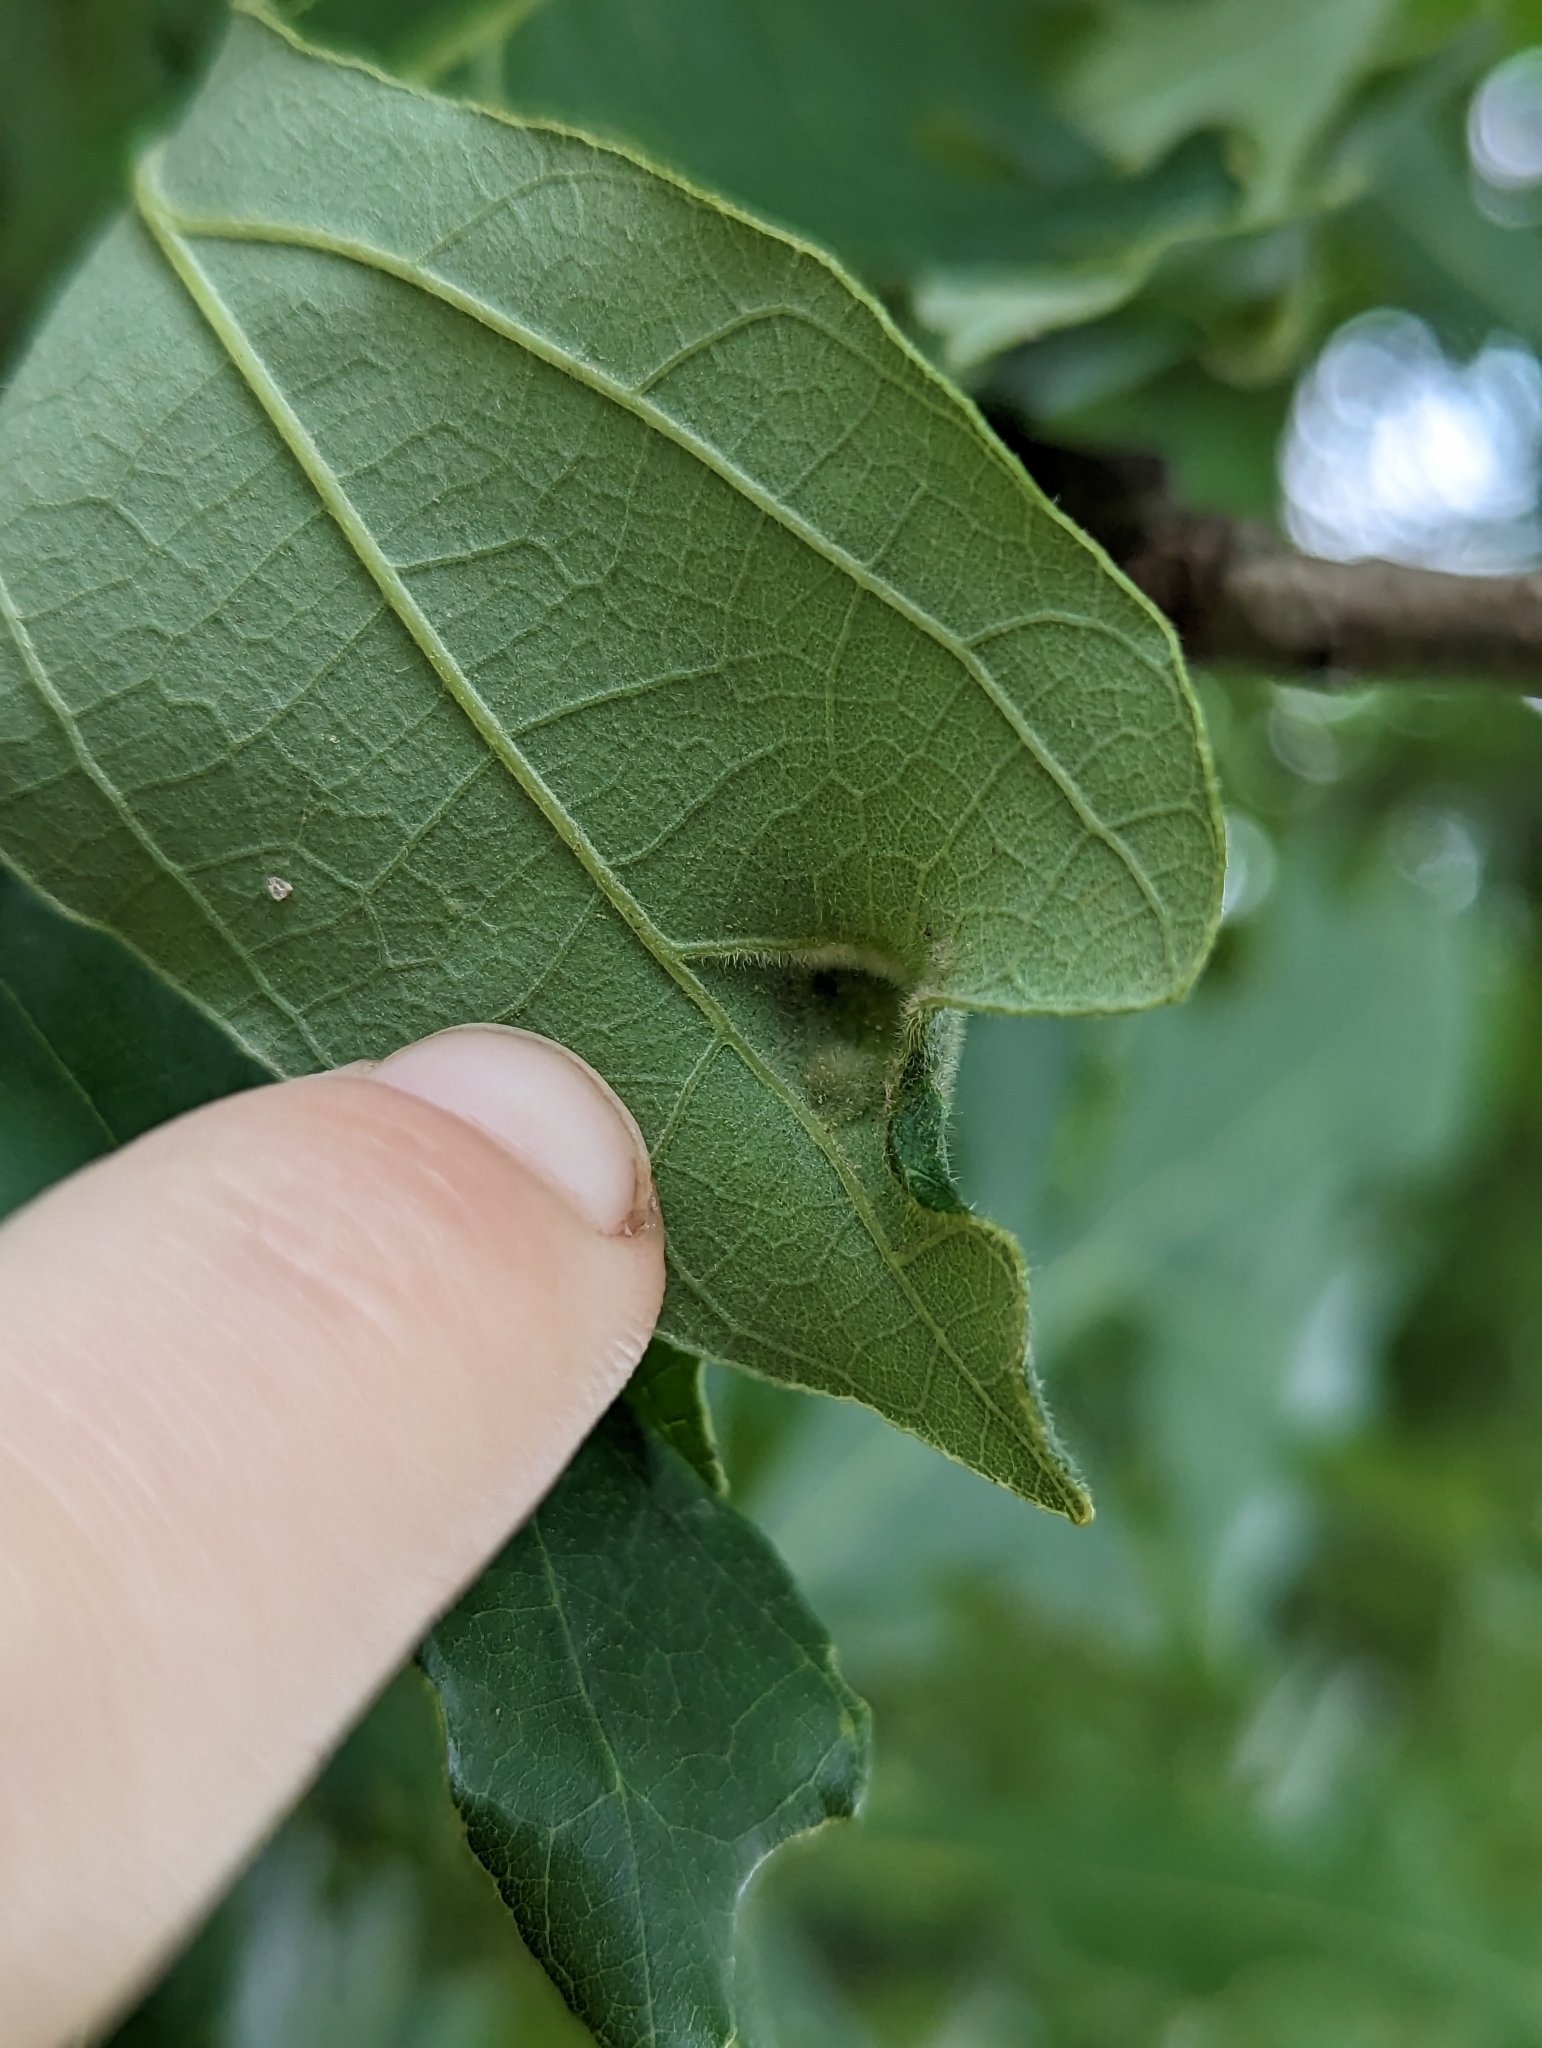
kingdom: Animalia
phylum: Arthropoda
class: Arachnida
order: Trombidiformes
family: Eriophyidae
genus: Aceria
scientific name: Aceria quercina
